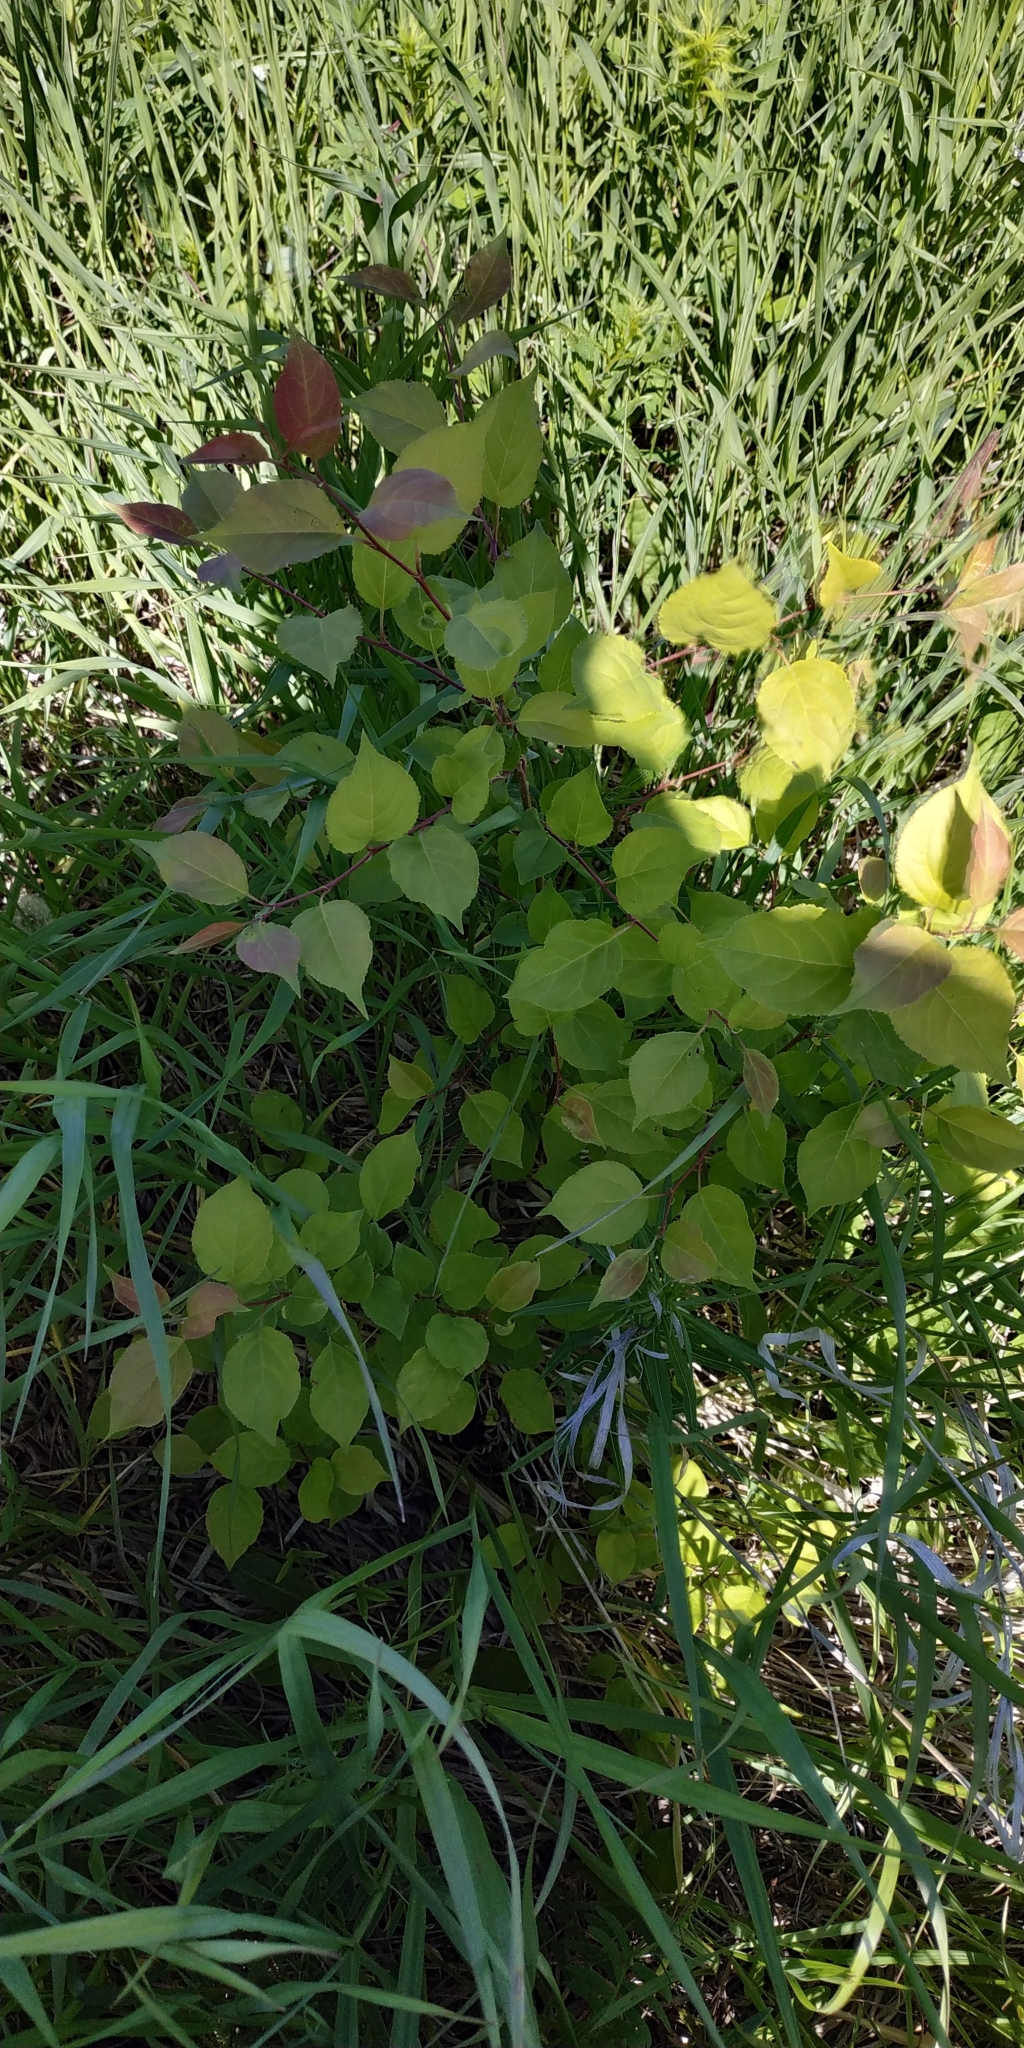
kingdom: Plantae
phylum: Tracheophyta
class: Magnoliopsida
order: Rosales
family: Rosaceae
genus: Malus
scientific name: Malus baccata
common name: Siberian crab
